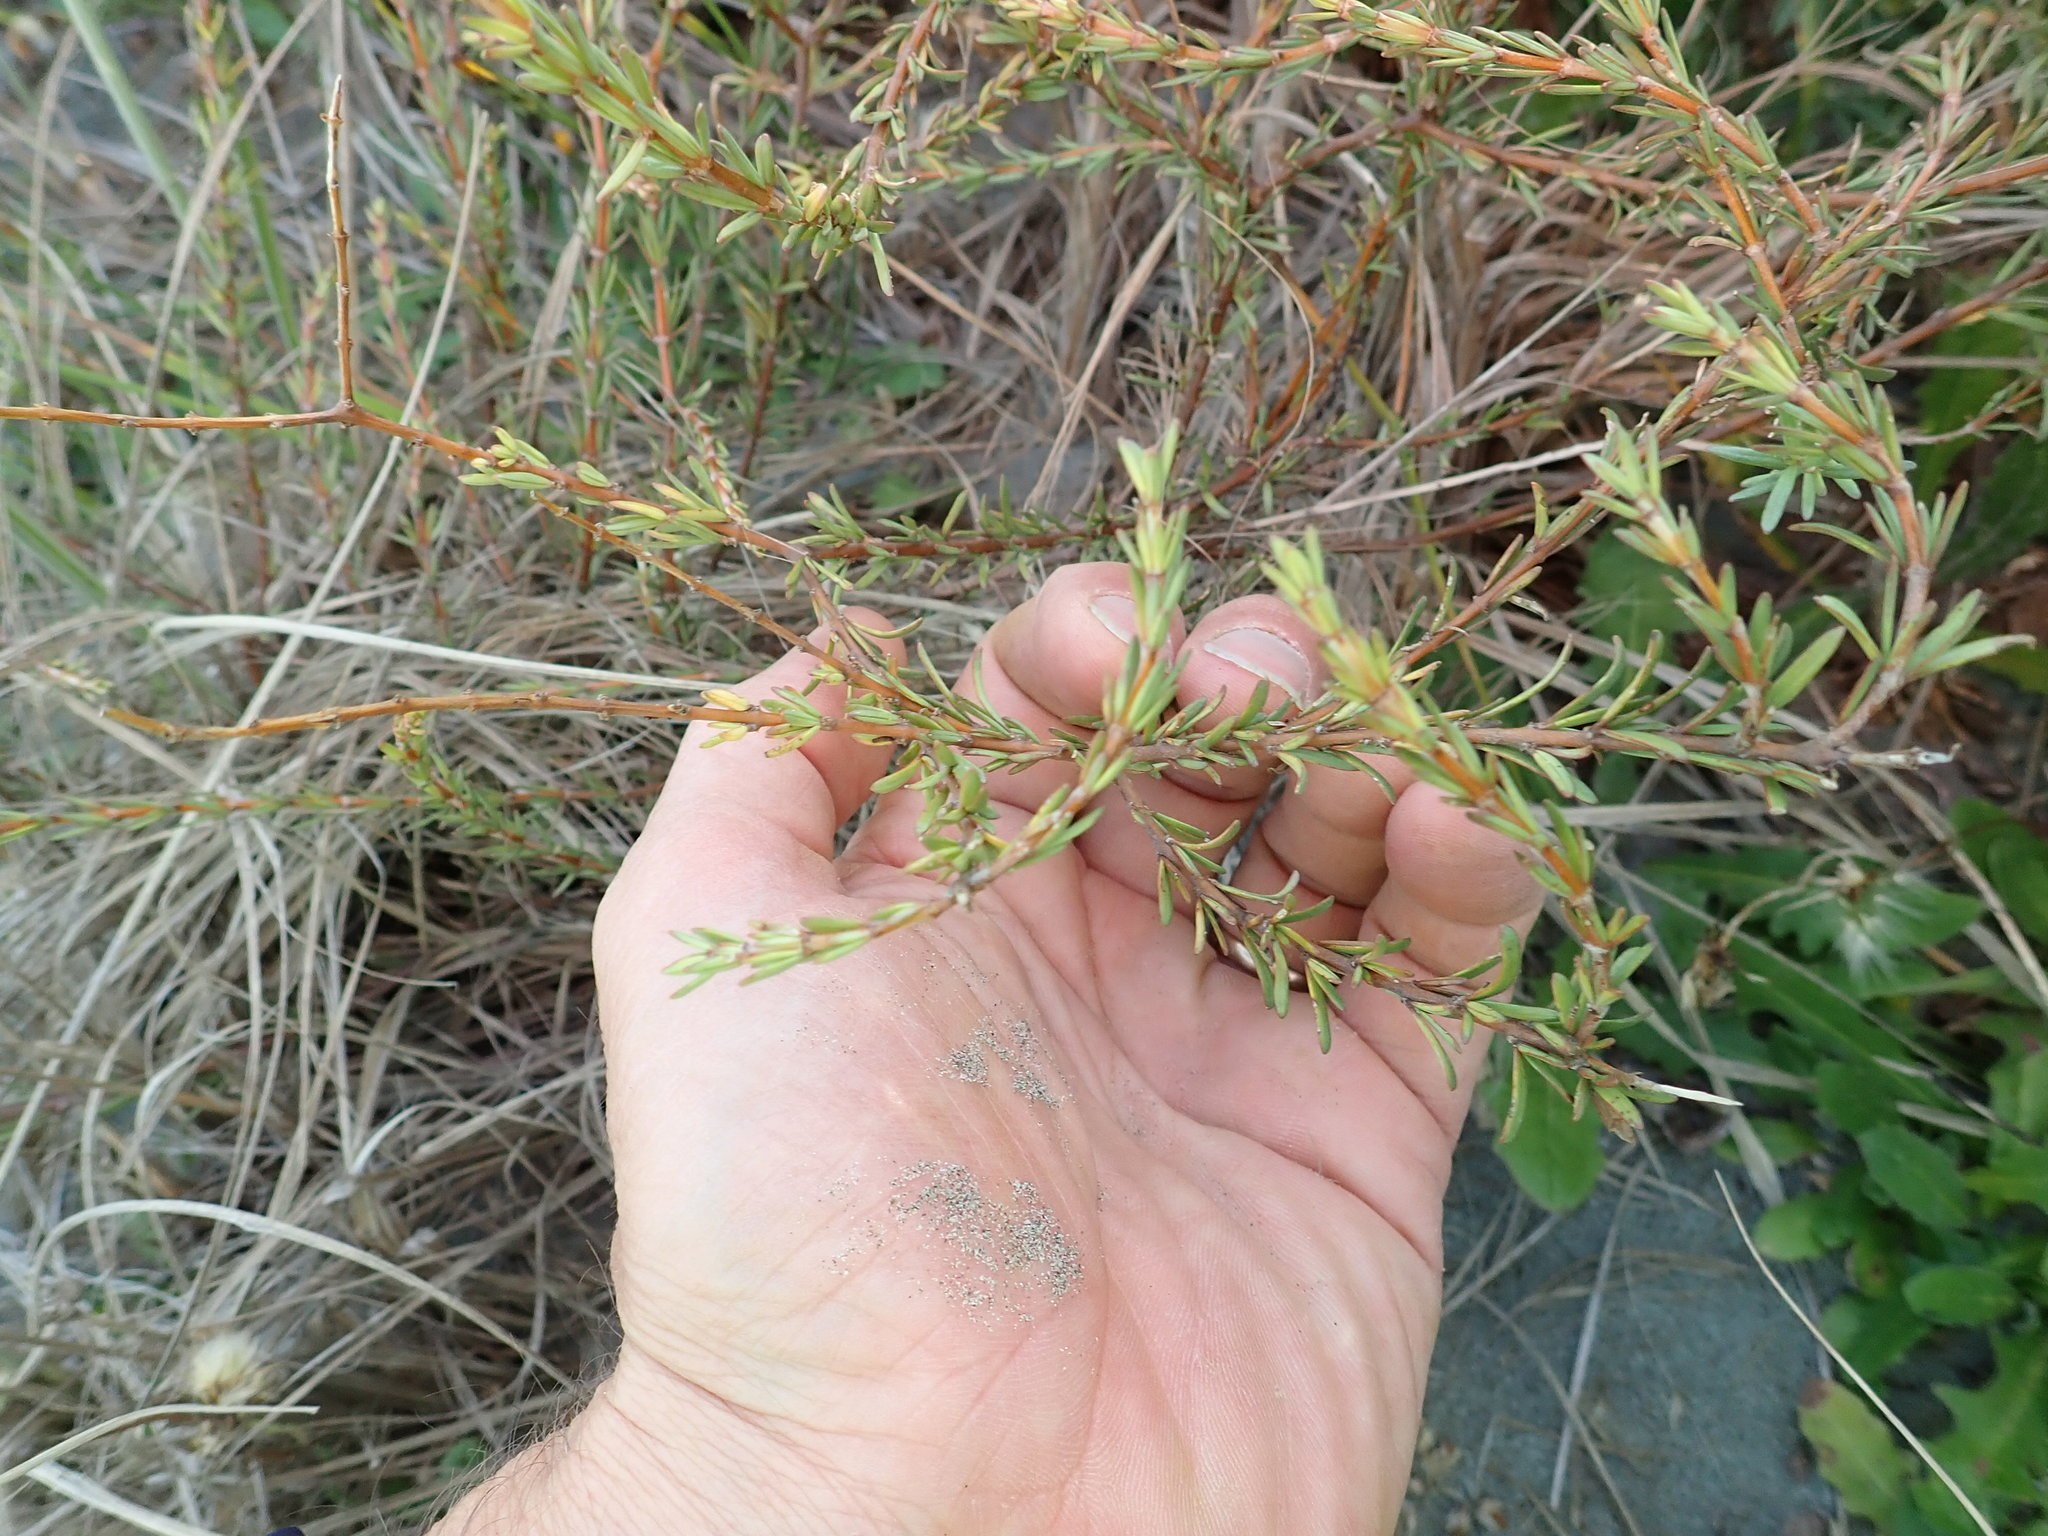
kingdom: Plantae
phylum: Tracheophyta
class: Magnoliopsida
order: Gentianales
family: Rubiaceae
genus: Coprosma
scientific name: Coprosma acerosa
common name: Sand coprosma
